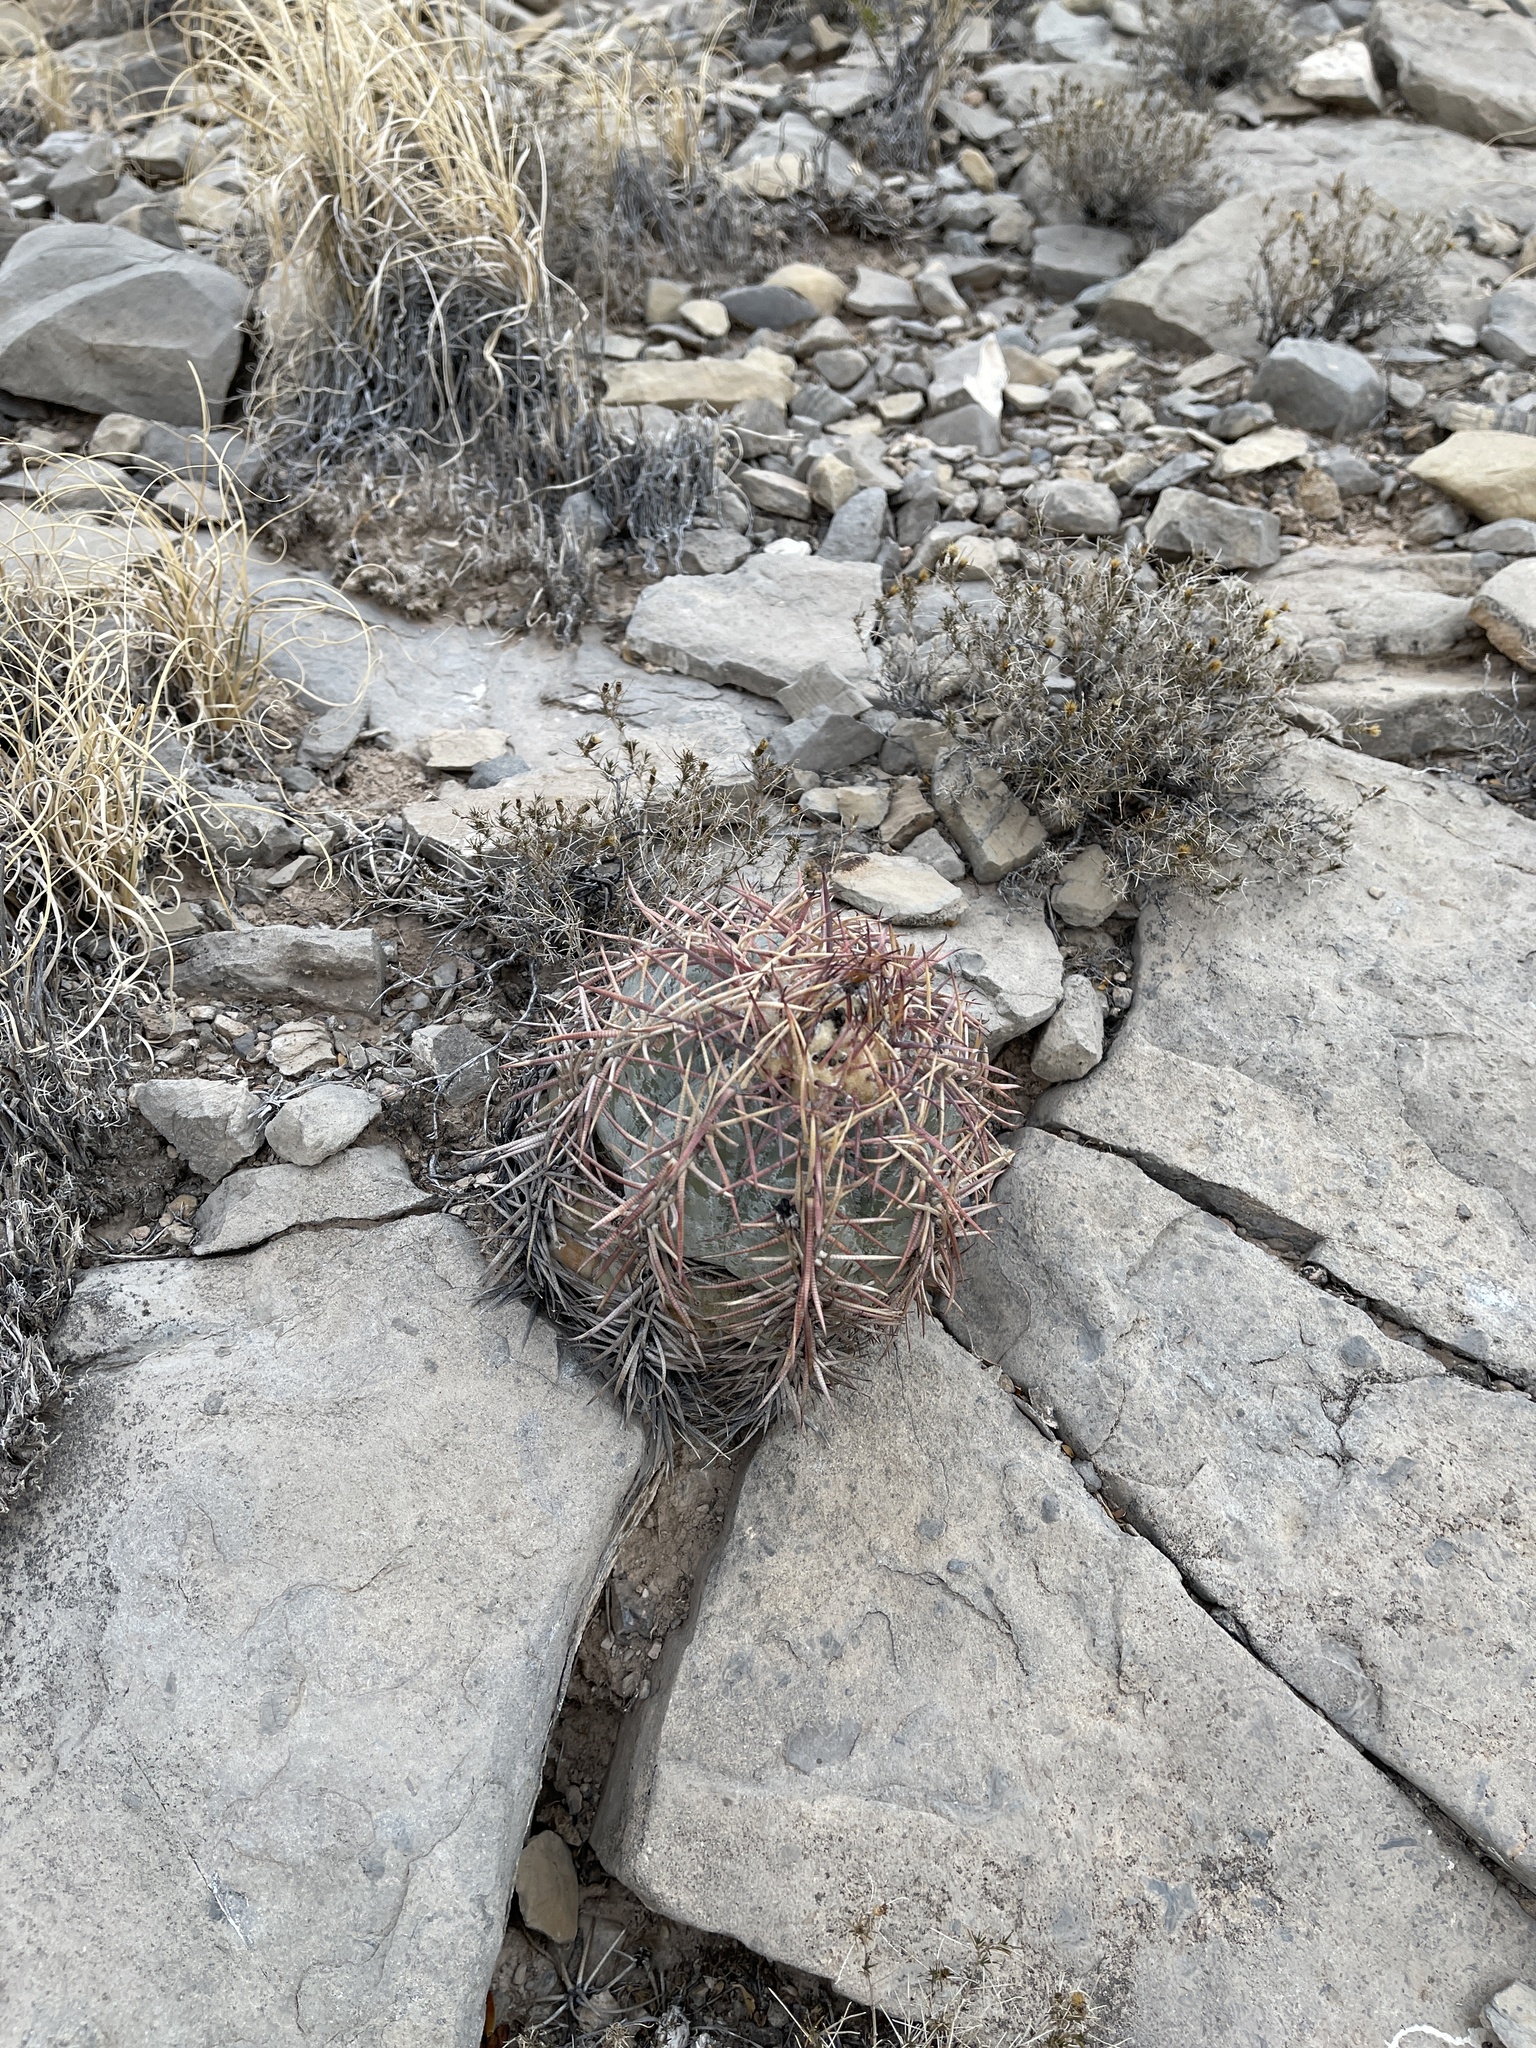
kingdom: Plantae
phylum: Tracheophyta
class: Magnoliopsida
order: Caryophyllales
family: Cactaceae
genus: Echinocactus
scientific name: Echinocactus horizonthalonius
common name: Devilshead
